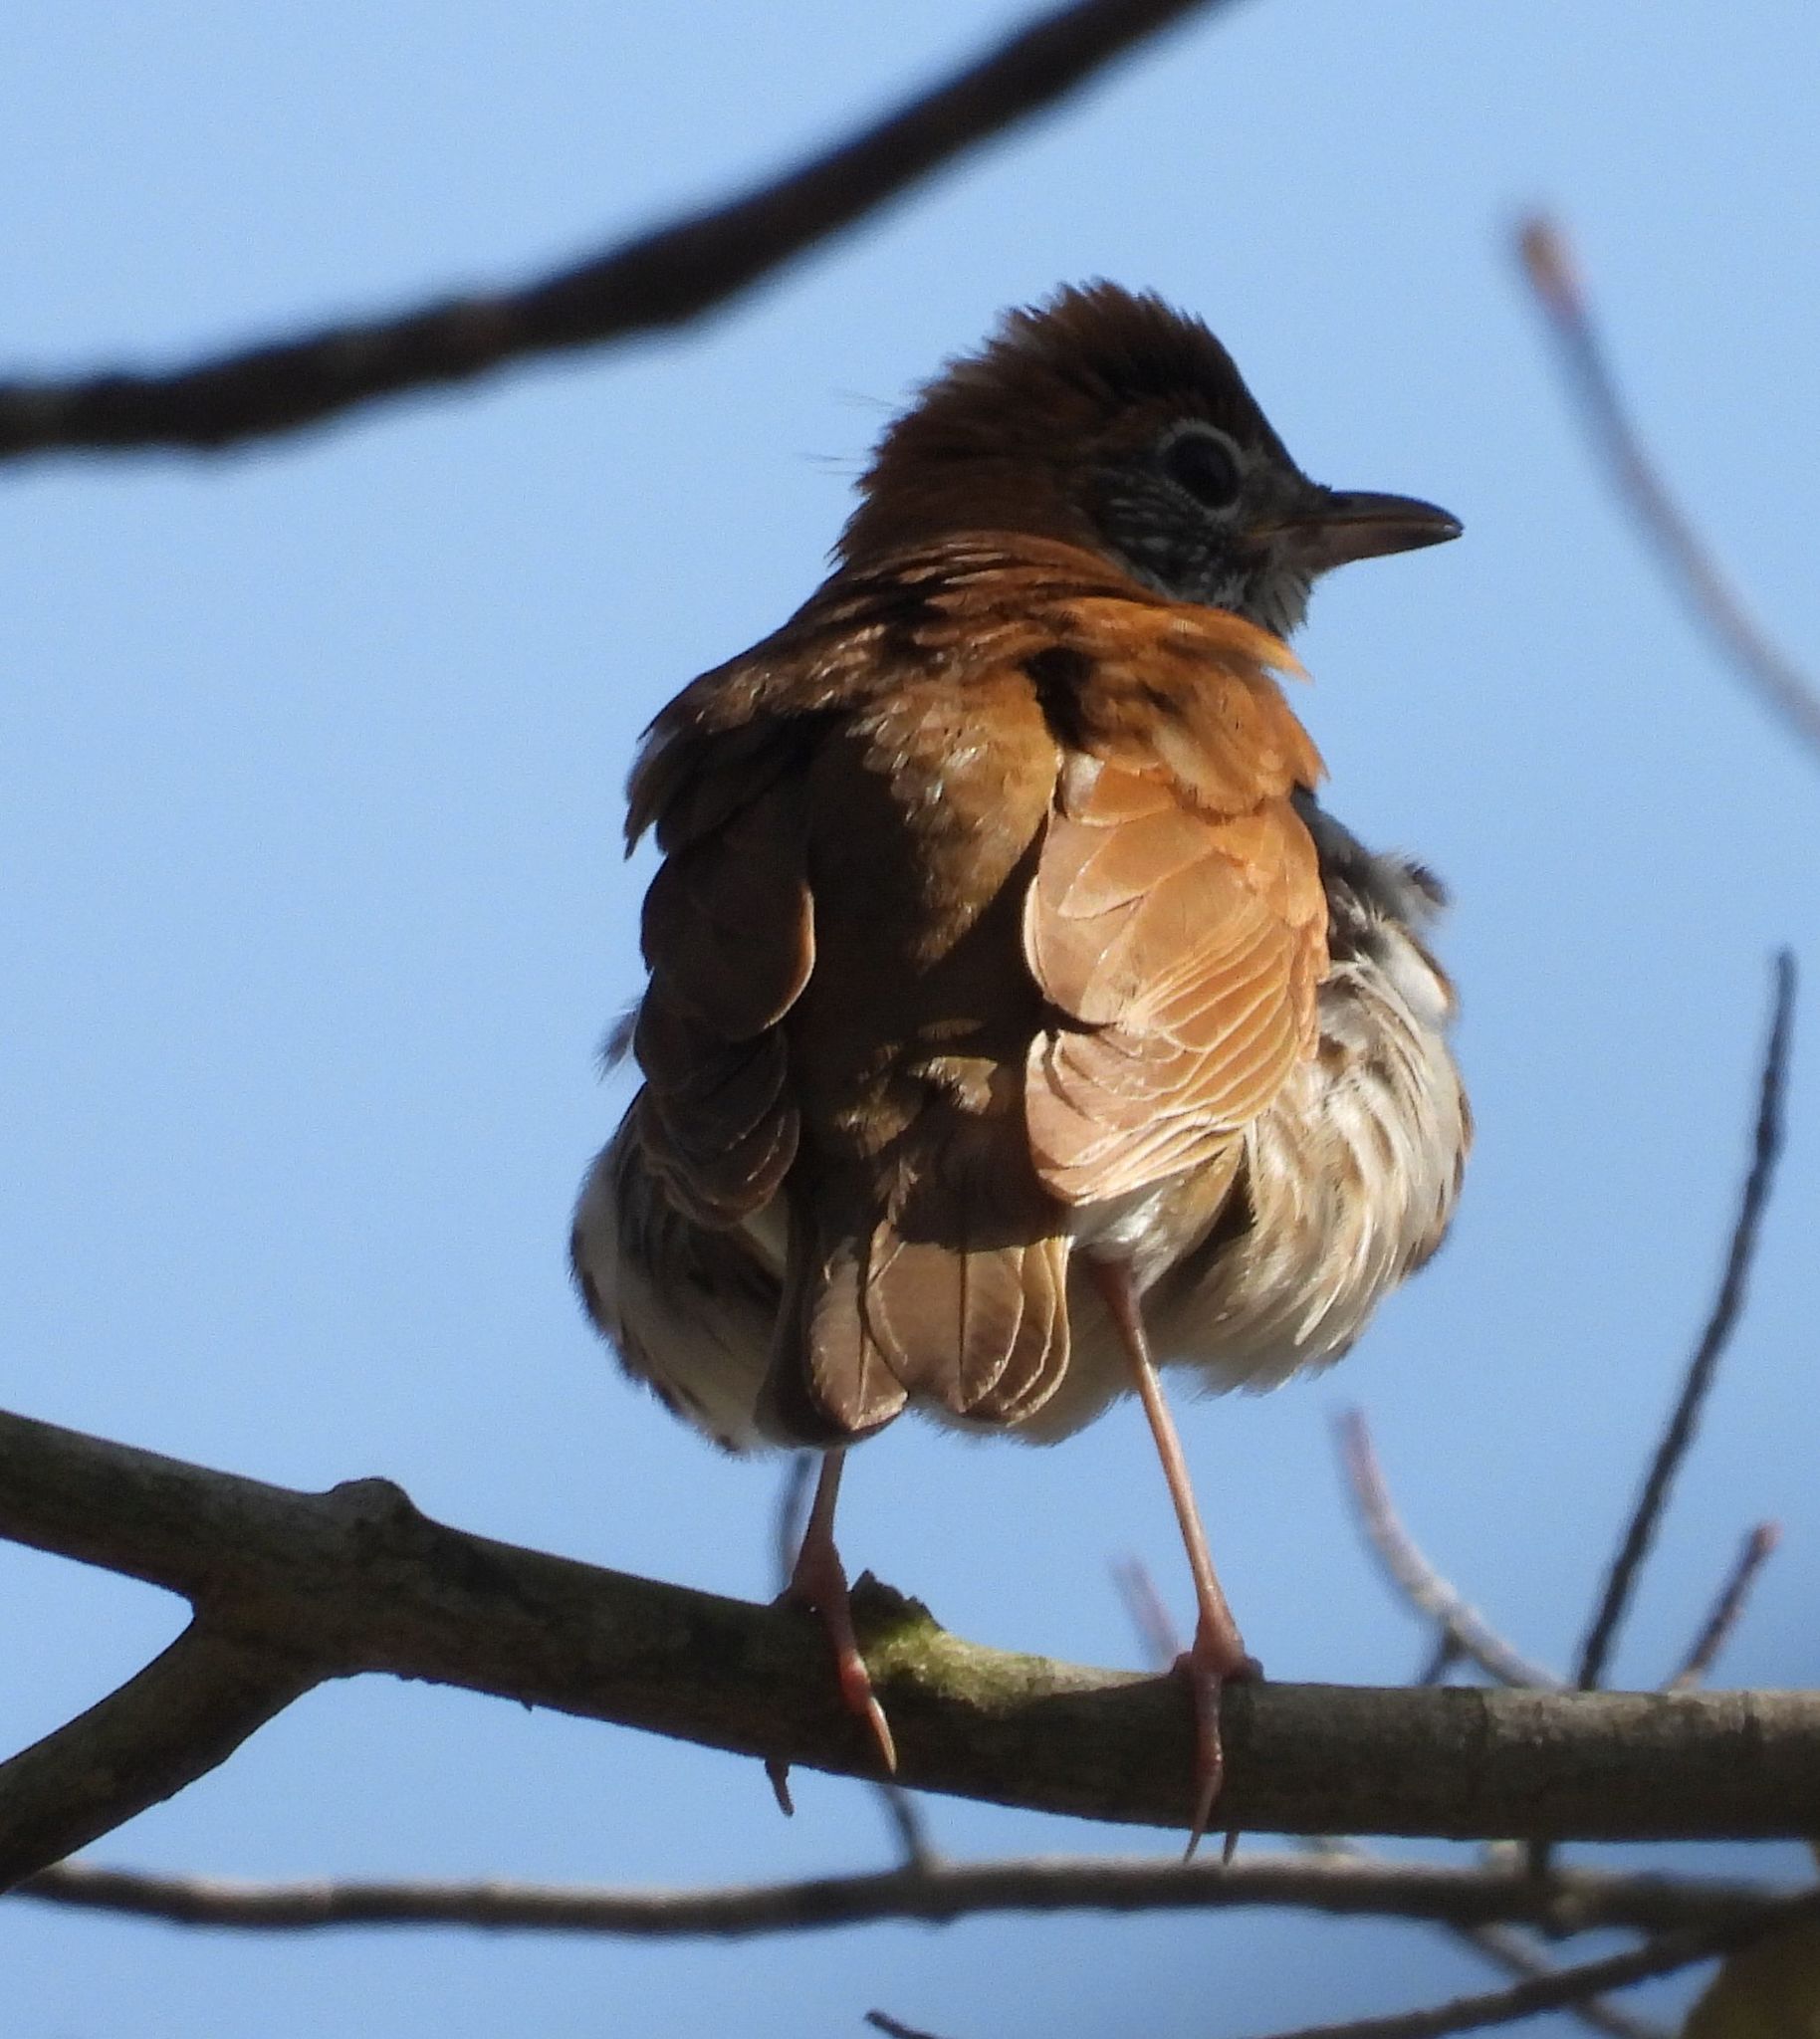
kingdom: Animalia
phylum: Chordata
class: Aves
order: Passeriformes
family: Turdidae
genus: Hylocichla
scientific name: Hylocichla mustelina
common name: Wood thrush
